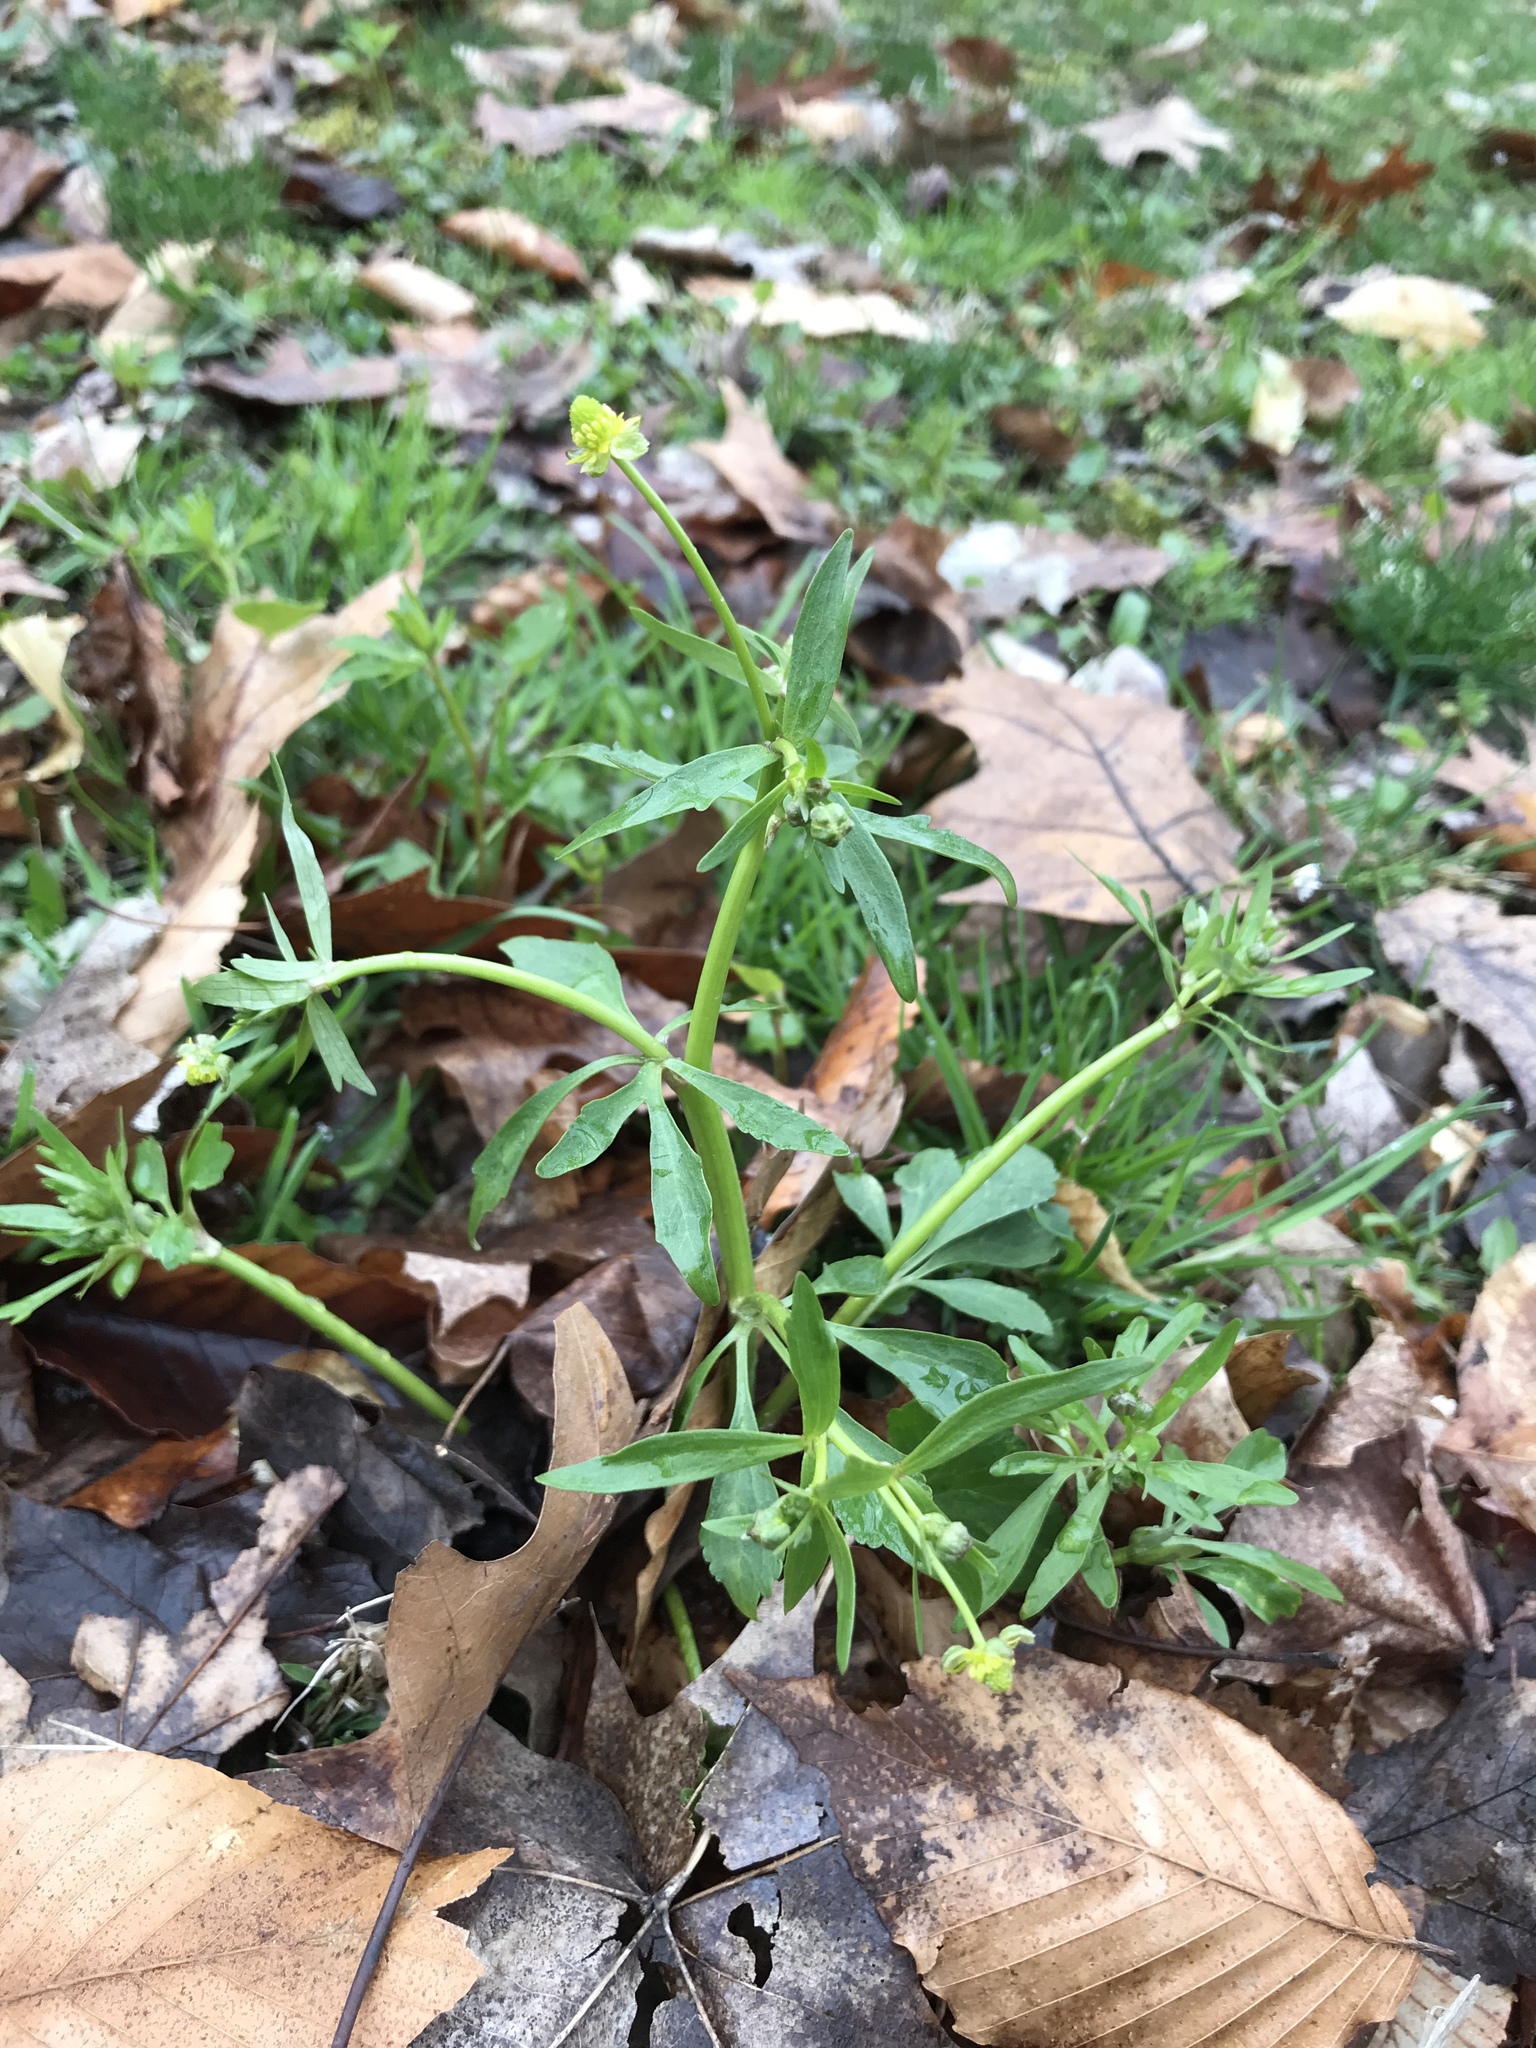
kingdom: Plantae
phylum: Tracheophyta
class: Magnoliopsida
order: Ranunculales
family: Ranunculaceae
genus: Ranunculus
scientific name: Ranunculus abortivus
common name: Early wood buttercup
